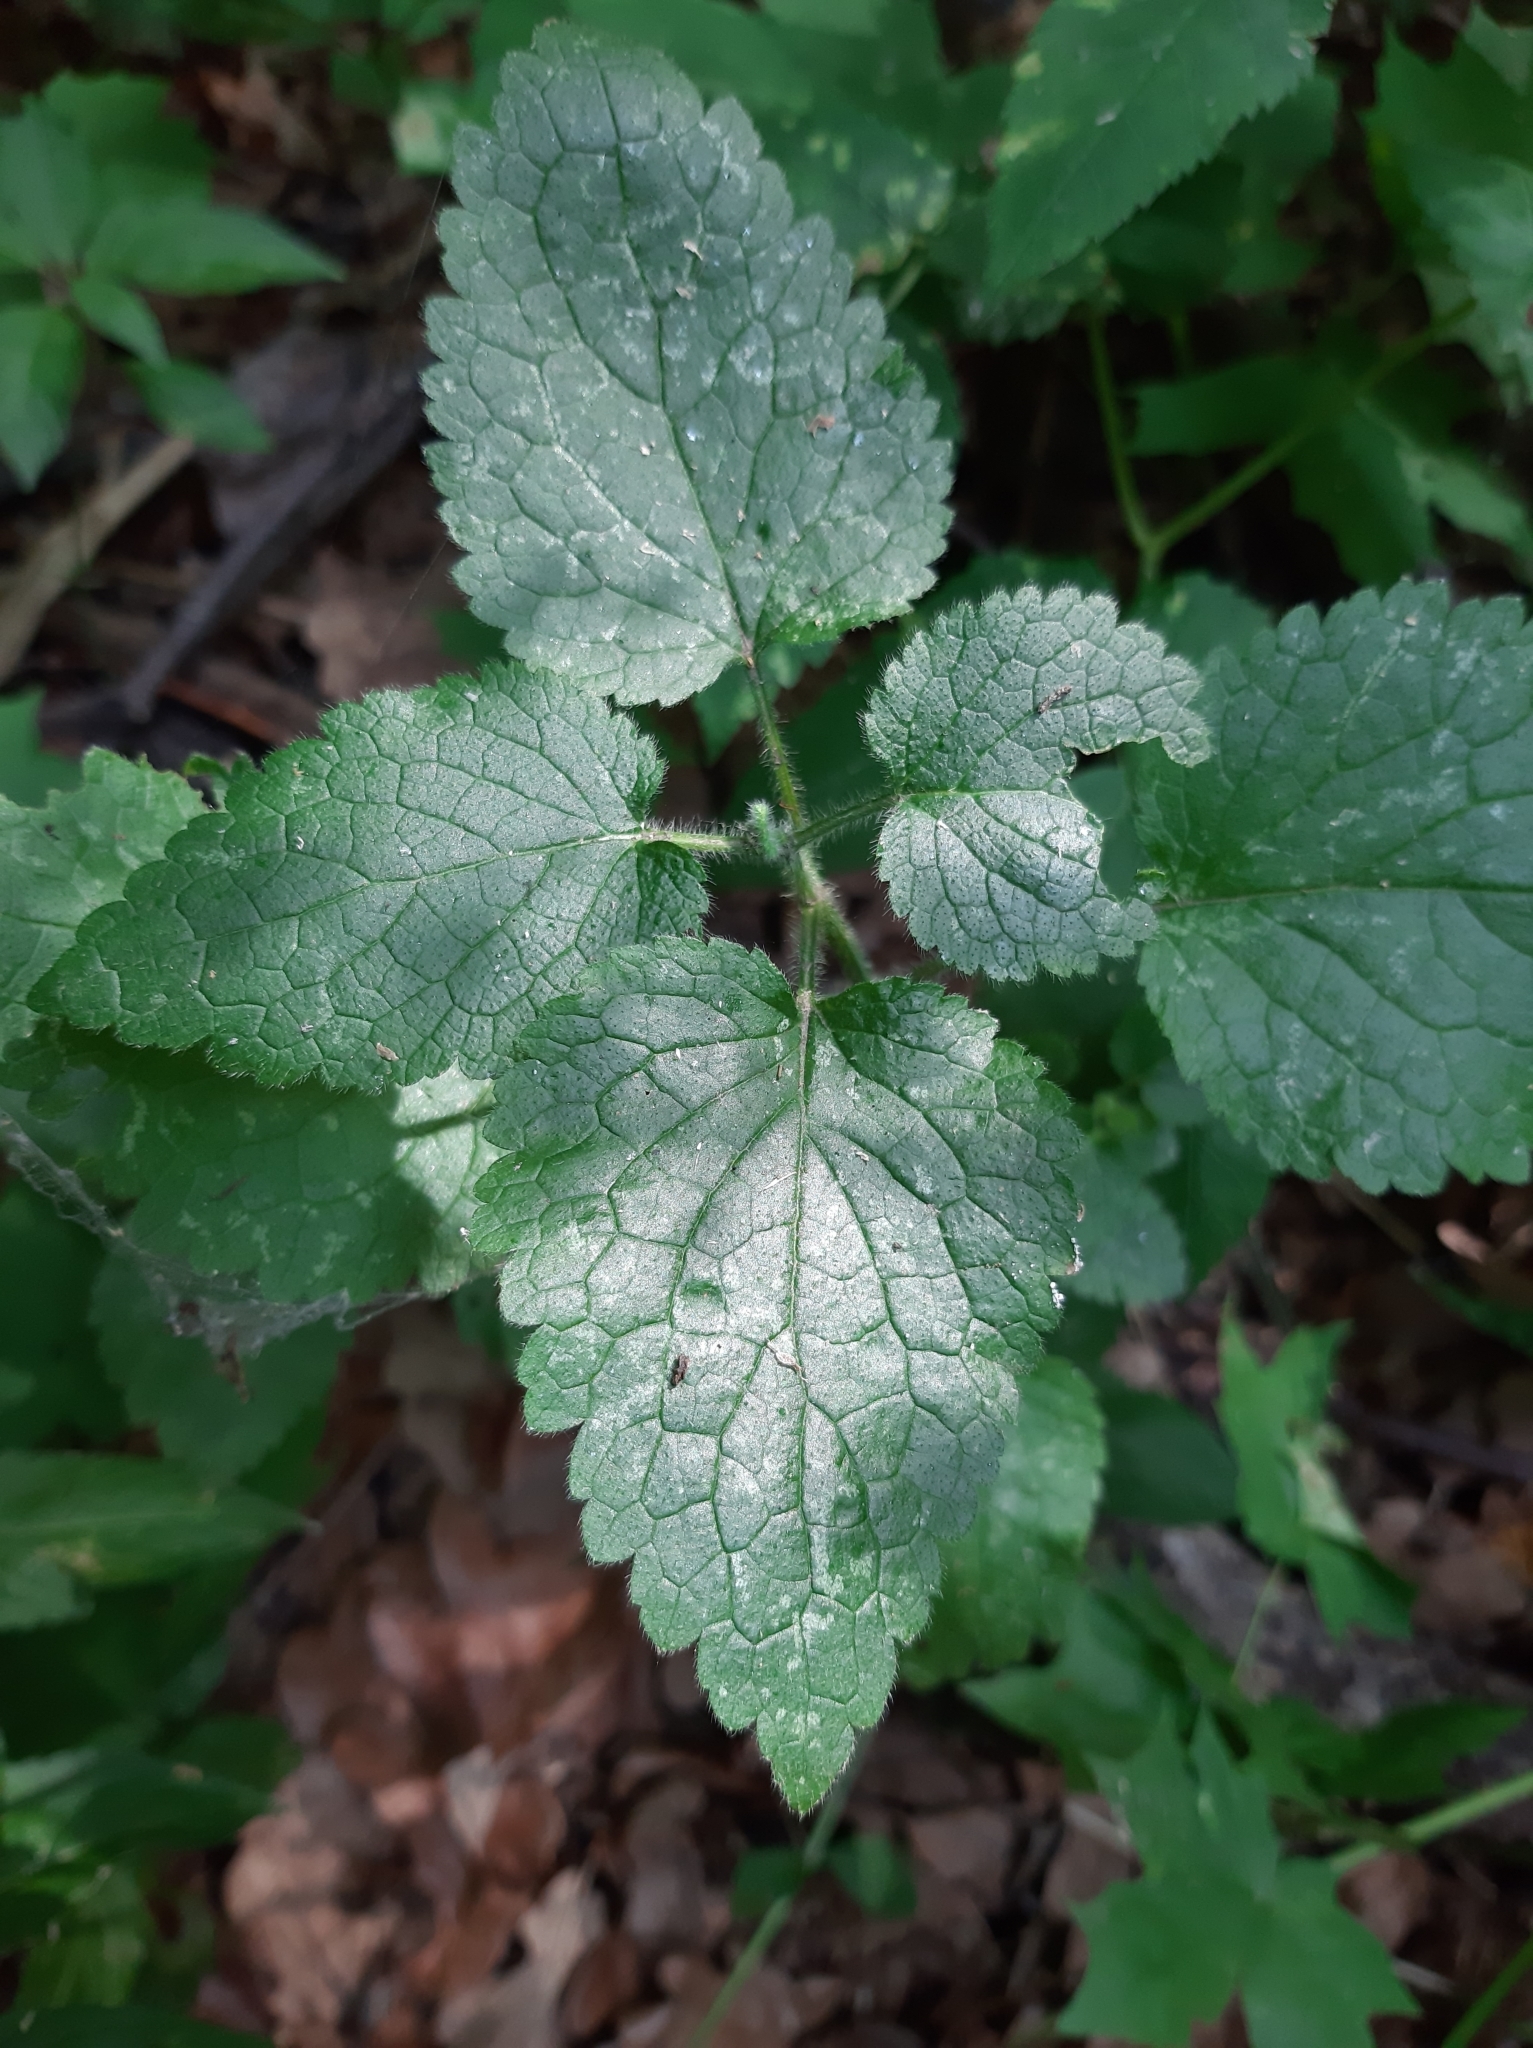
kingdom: Plantae
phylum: Tracheophyta
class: Magnoliopsida
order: Lamiales
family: Lamiaceae
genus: Lamium
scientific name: Lamium maculatum
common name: Spotted dead-nettle
